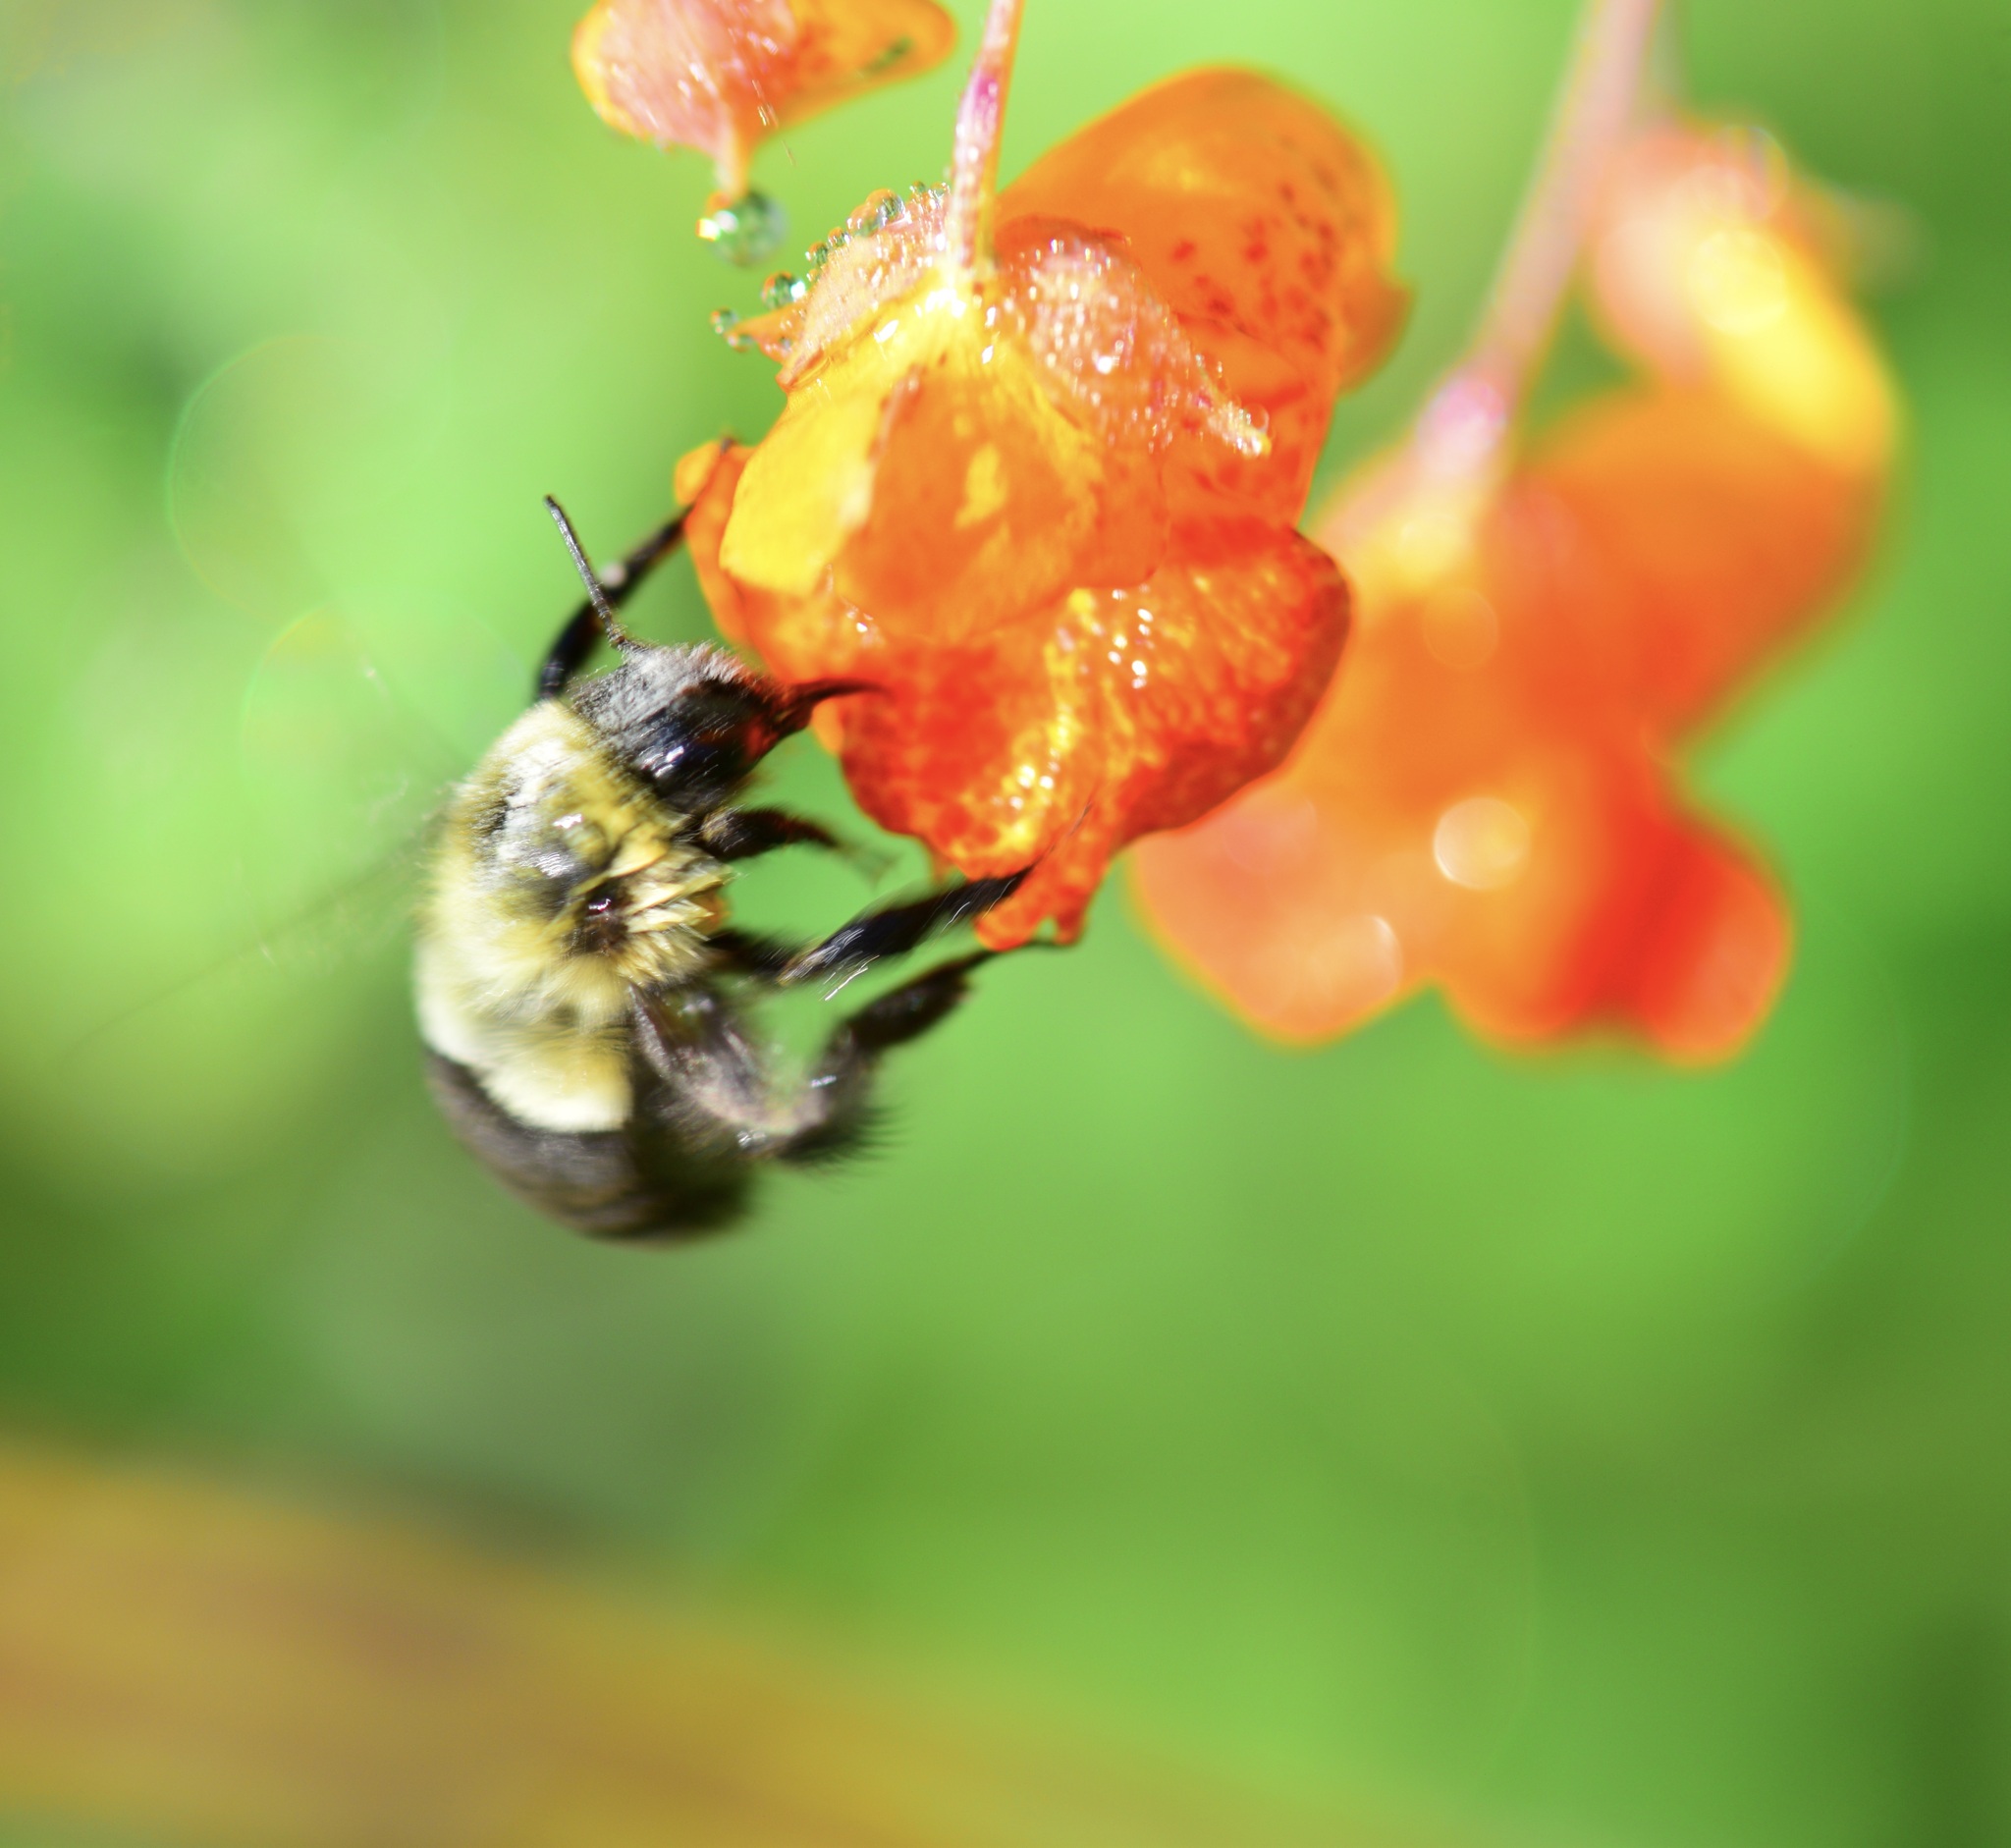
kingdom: Animalia
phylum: Arthropoda
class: Insecta
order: Hymenoptera
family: Apidae
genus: Bombus
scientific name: Bombus impatiens
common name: Common eastern bumble bee
